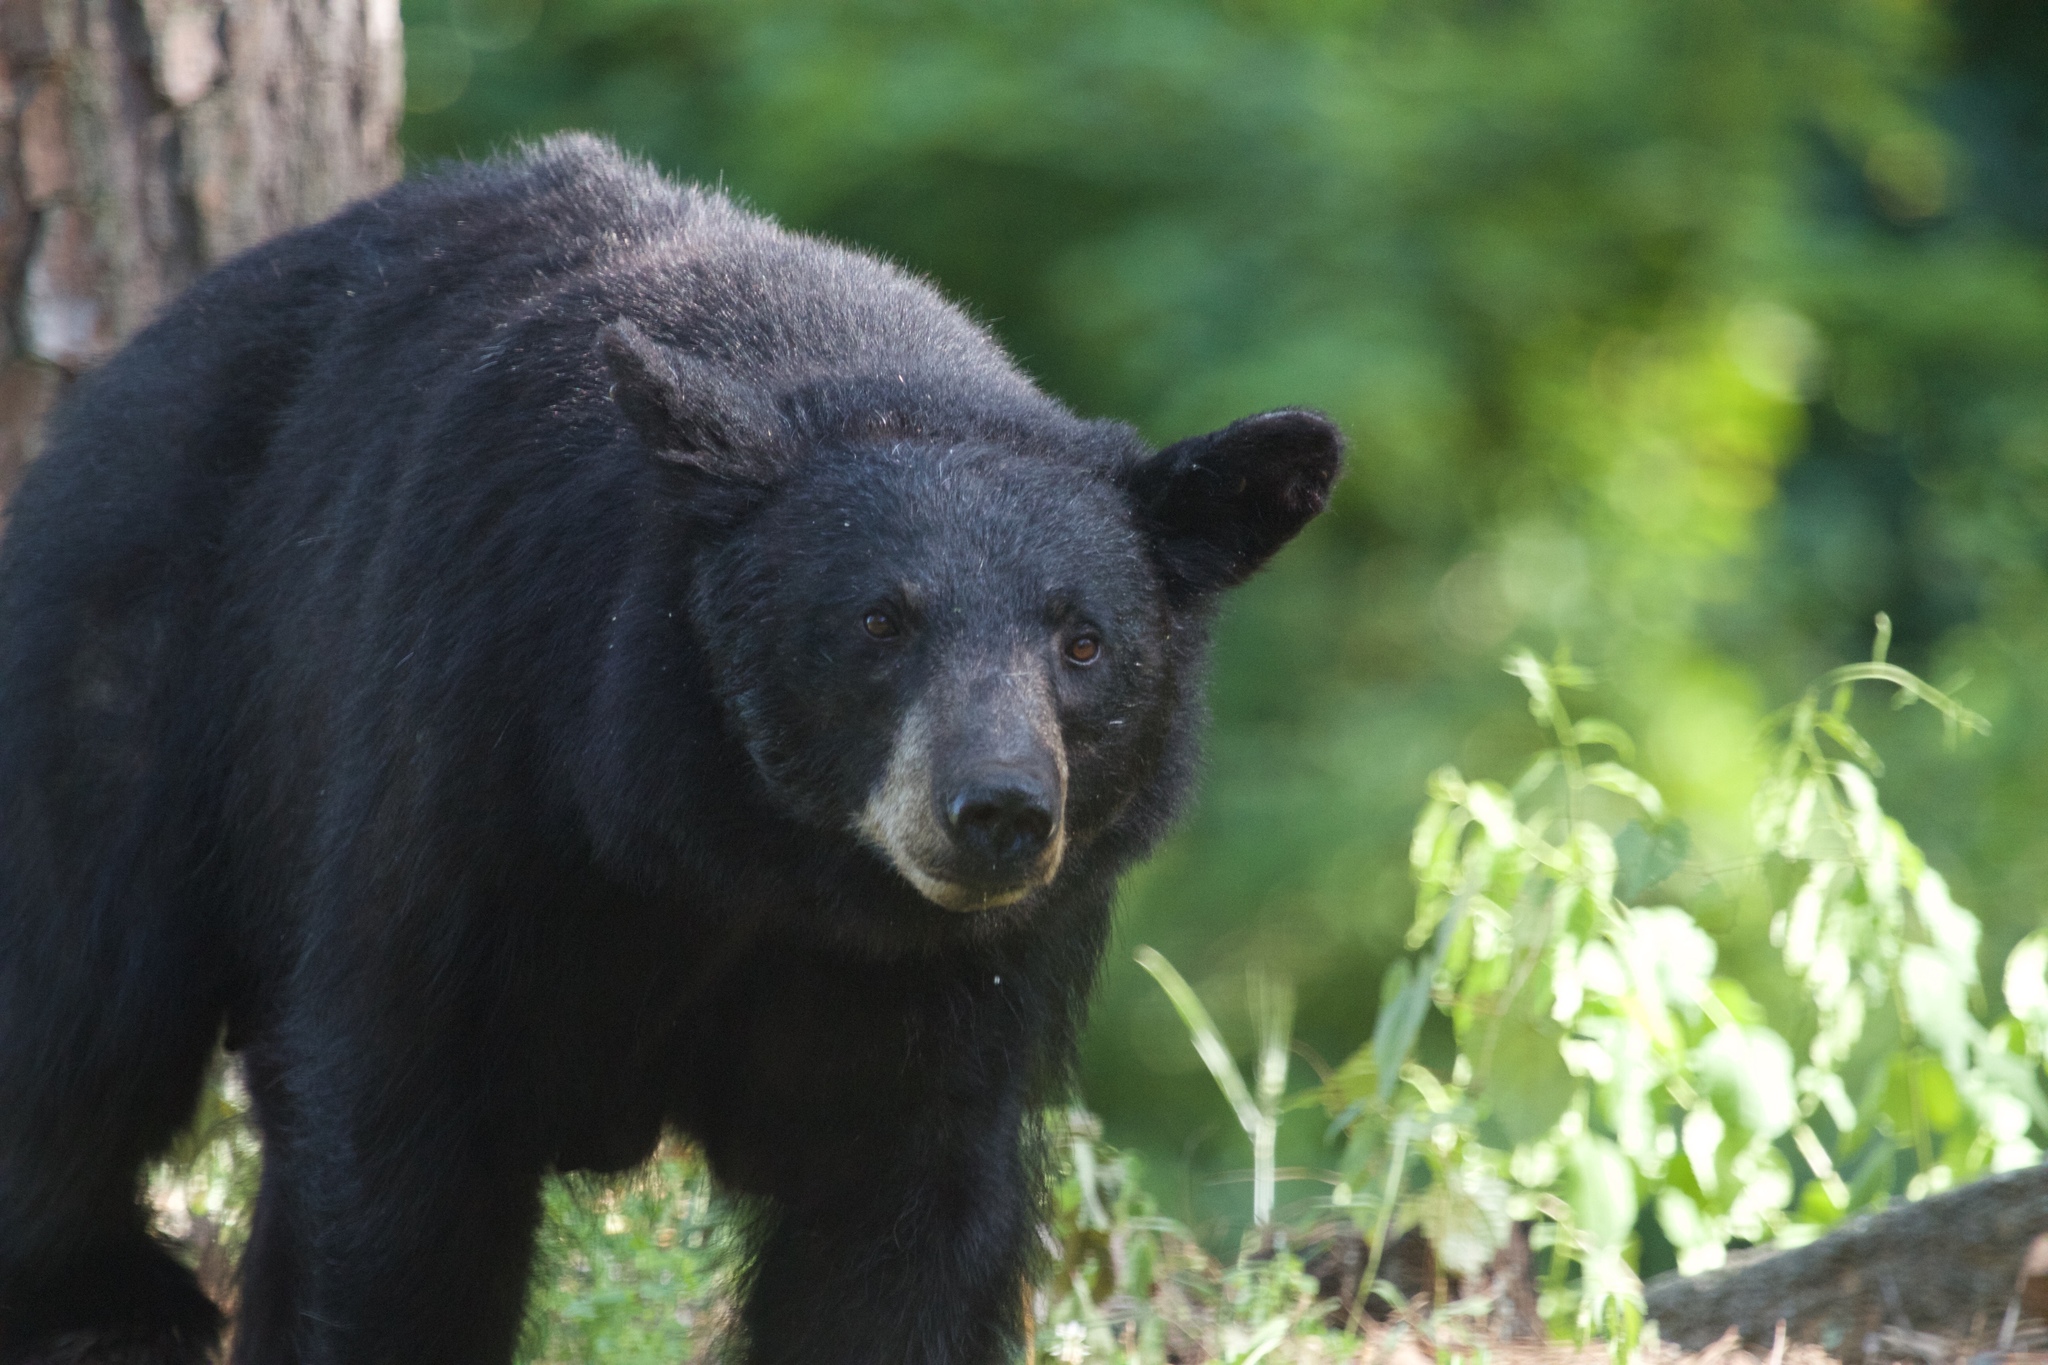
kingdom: Animalia
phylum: Chordata
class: Mammalia
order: Carnivora
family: Ursidae
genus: Ursus
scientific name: Ursus americanus
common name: American black bear
